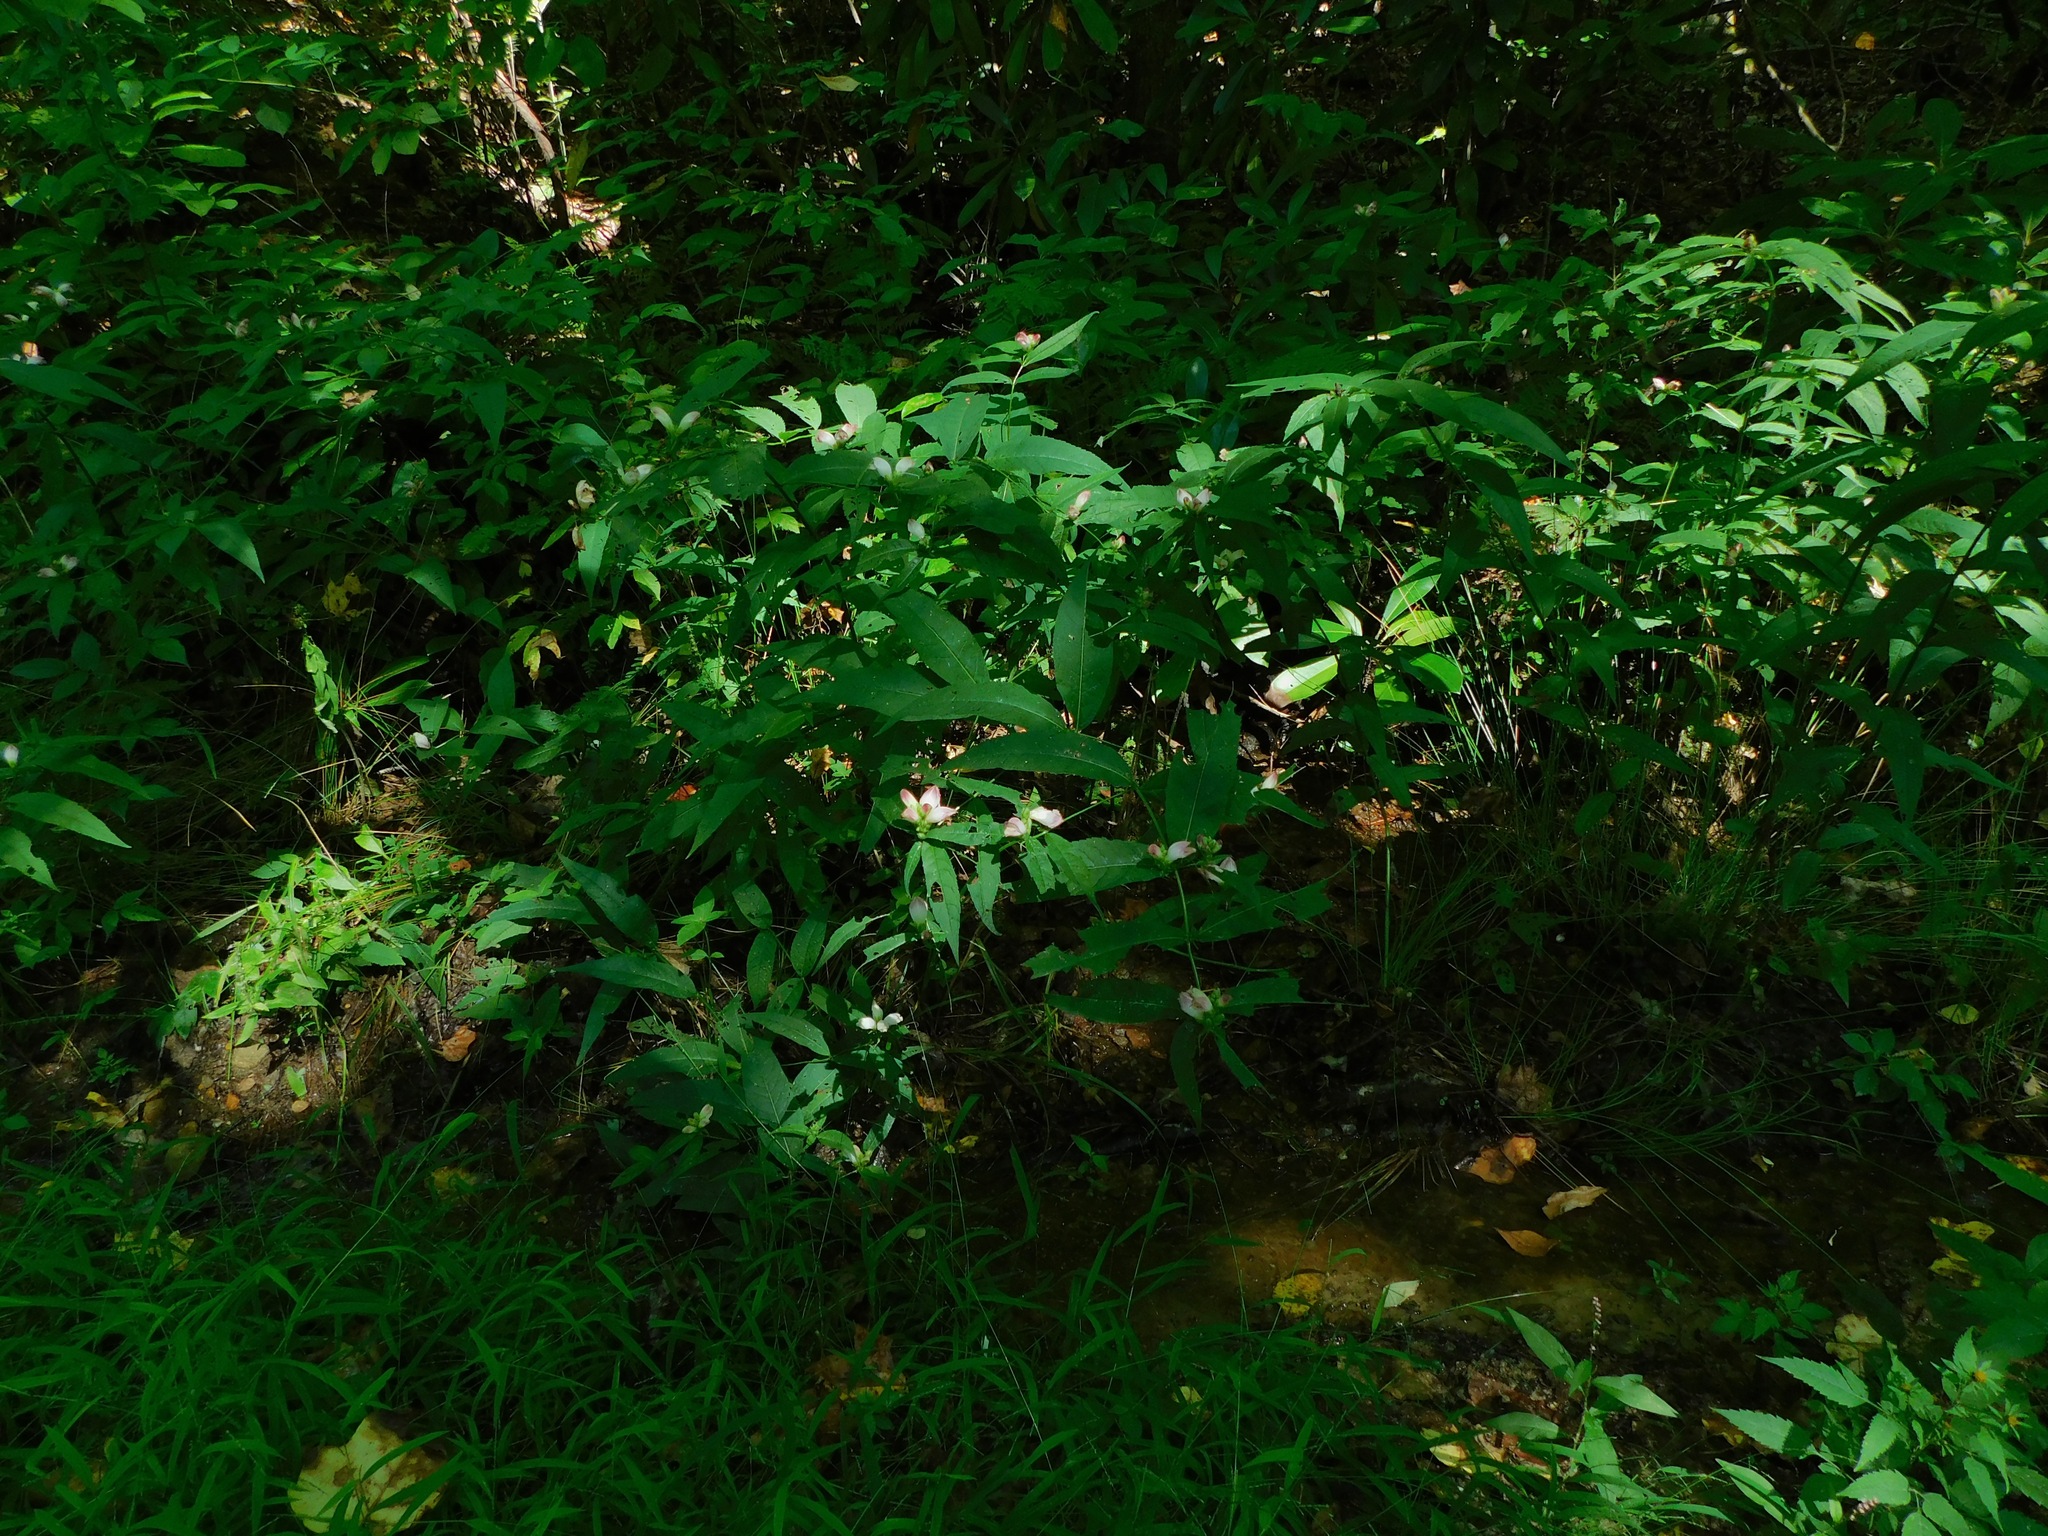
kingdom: Plantae
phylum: Tracheophyta
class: Magnoliopsida
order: Lamiales
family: Plantaginaceae
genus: Chelone
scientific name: Chelone glabra
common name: Snakehead
